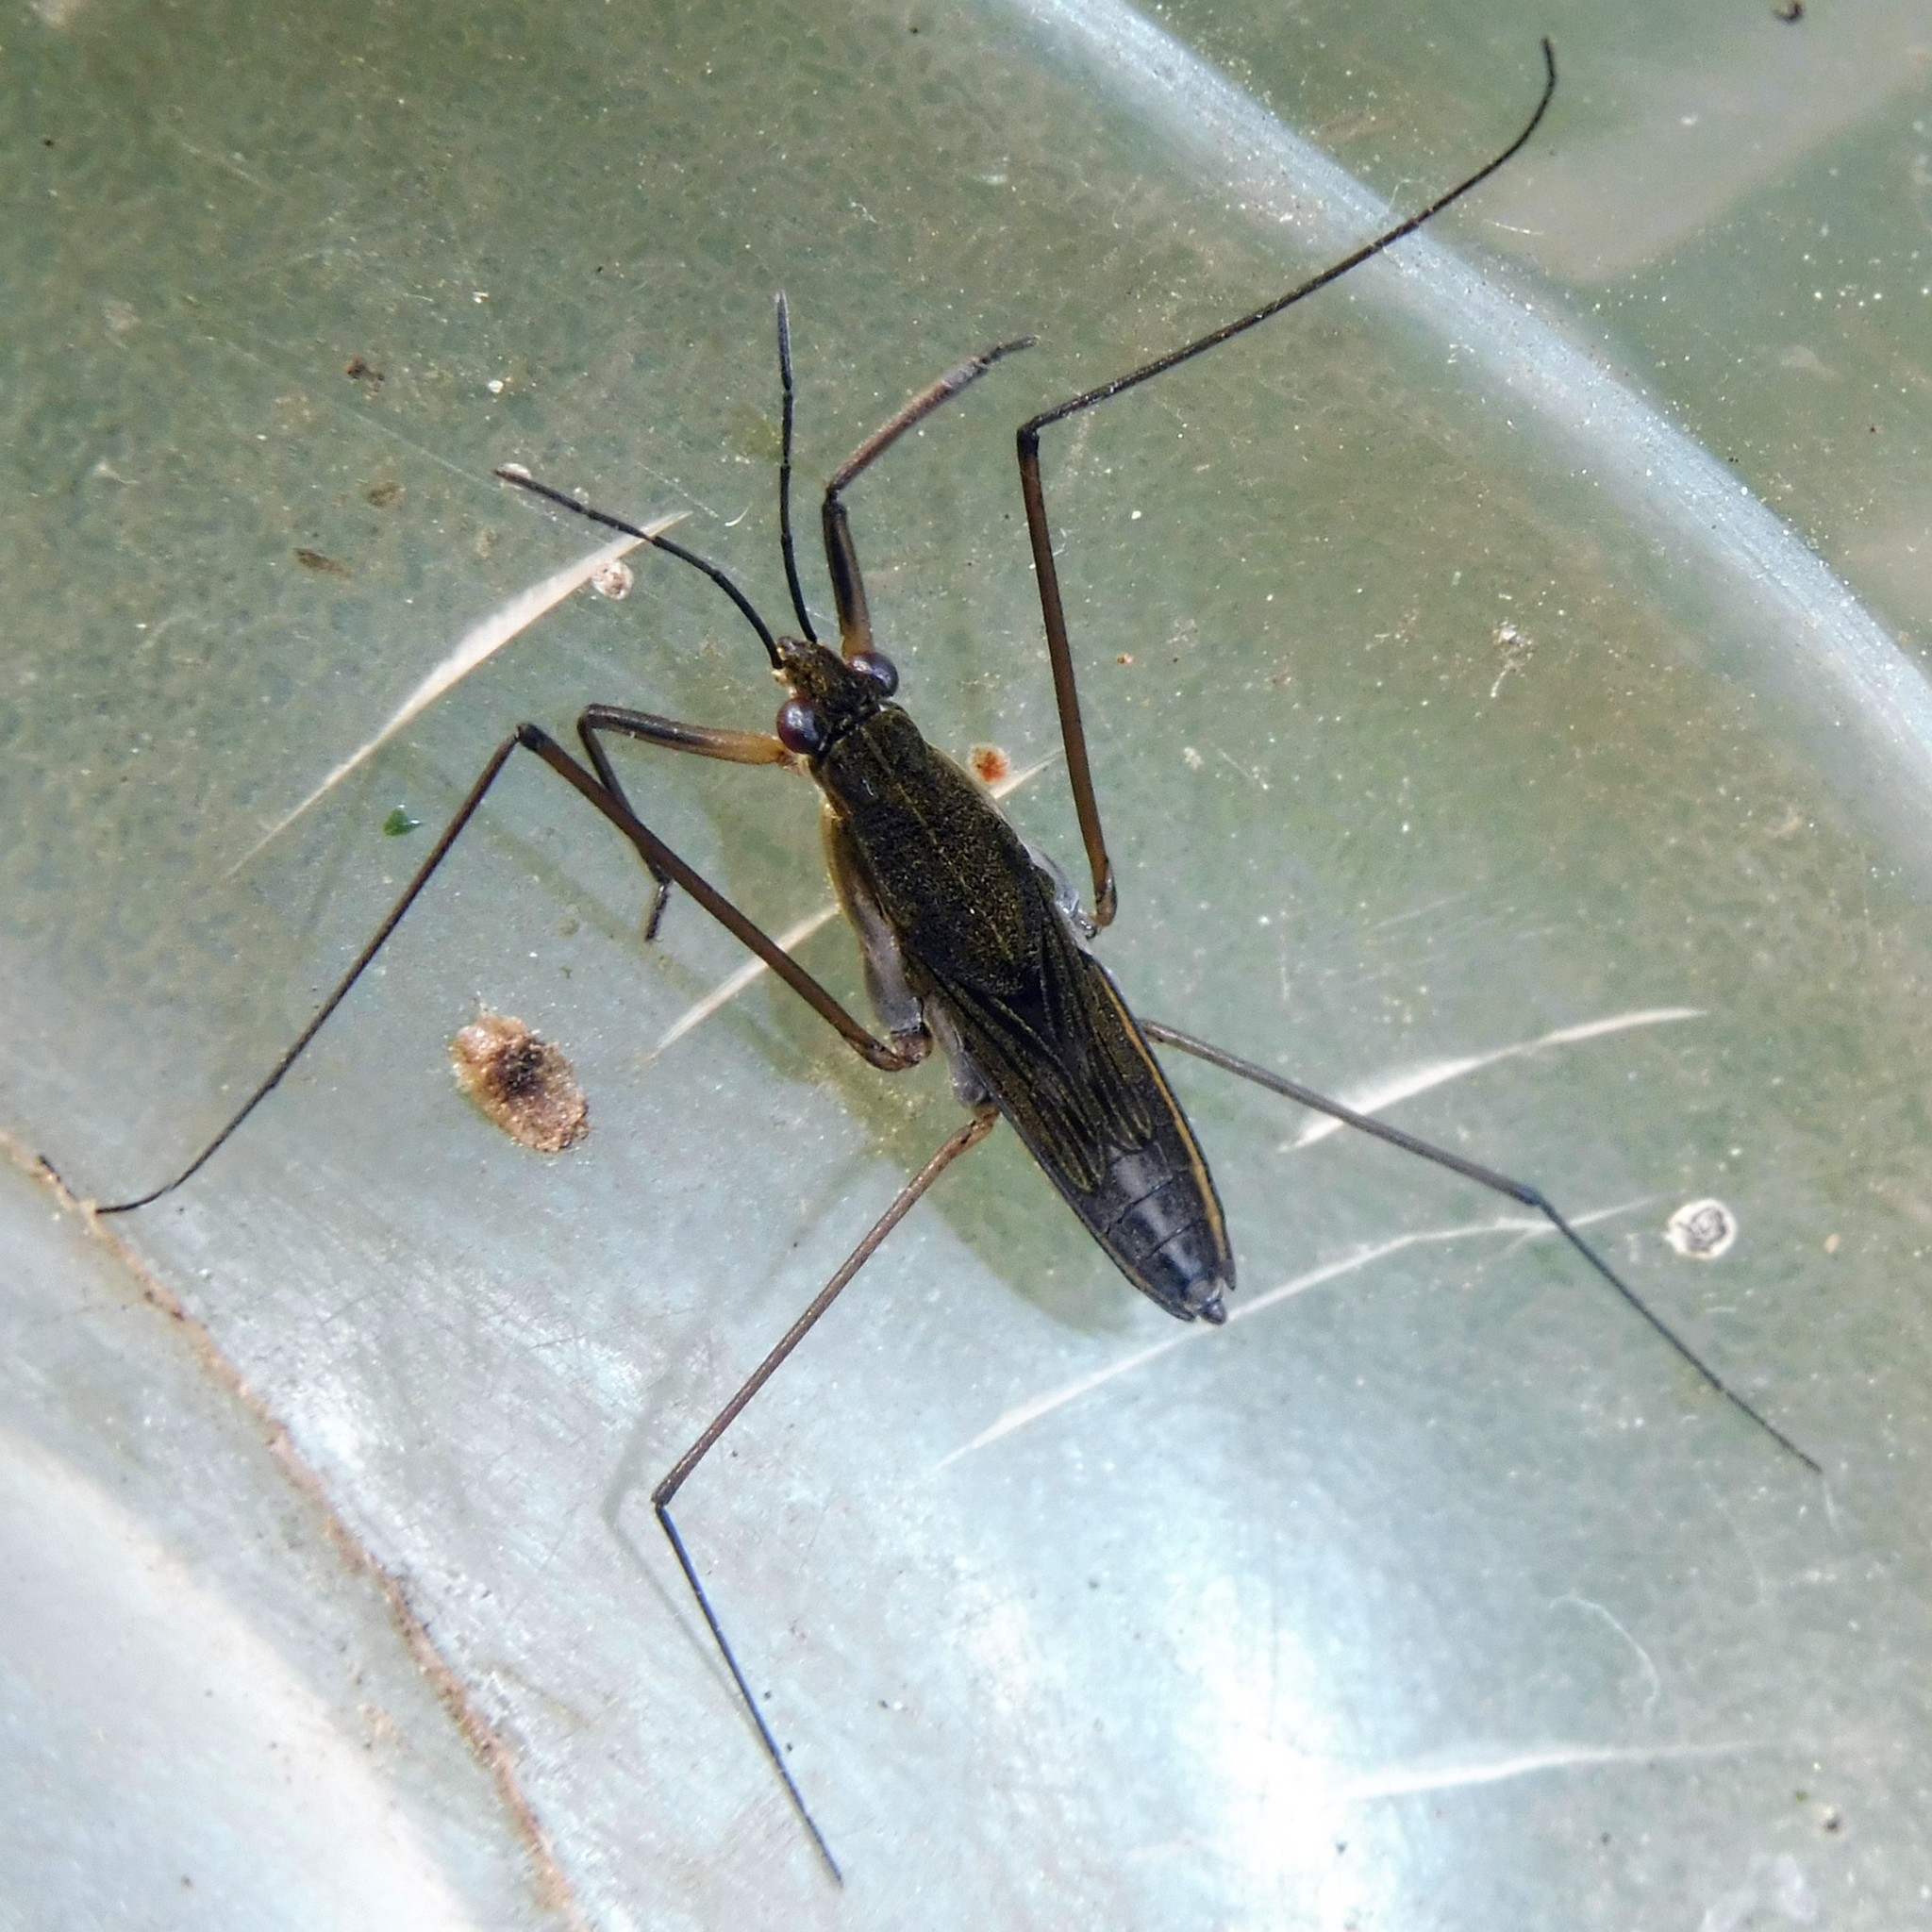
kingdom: Animalia
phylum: Arthropoda
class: Insecta
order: Hemiptera
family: Gerridae
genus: Gerris
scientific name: Gerris lacustris
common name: Common pondskater
